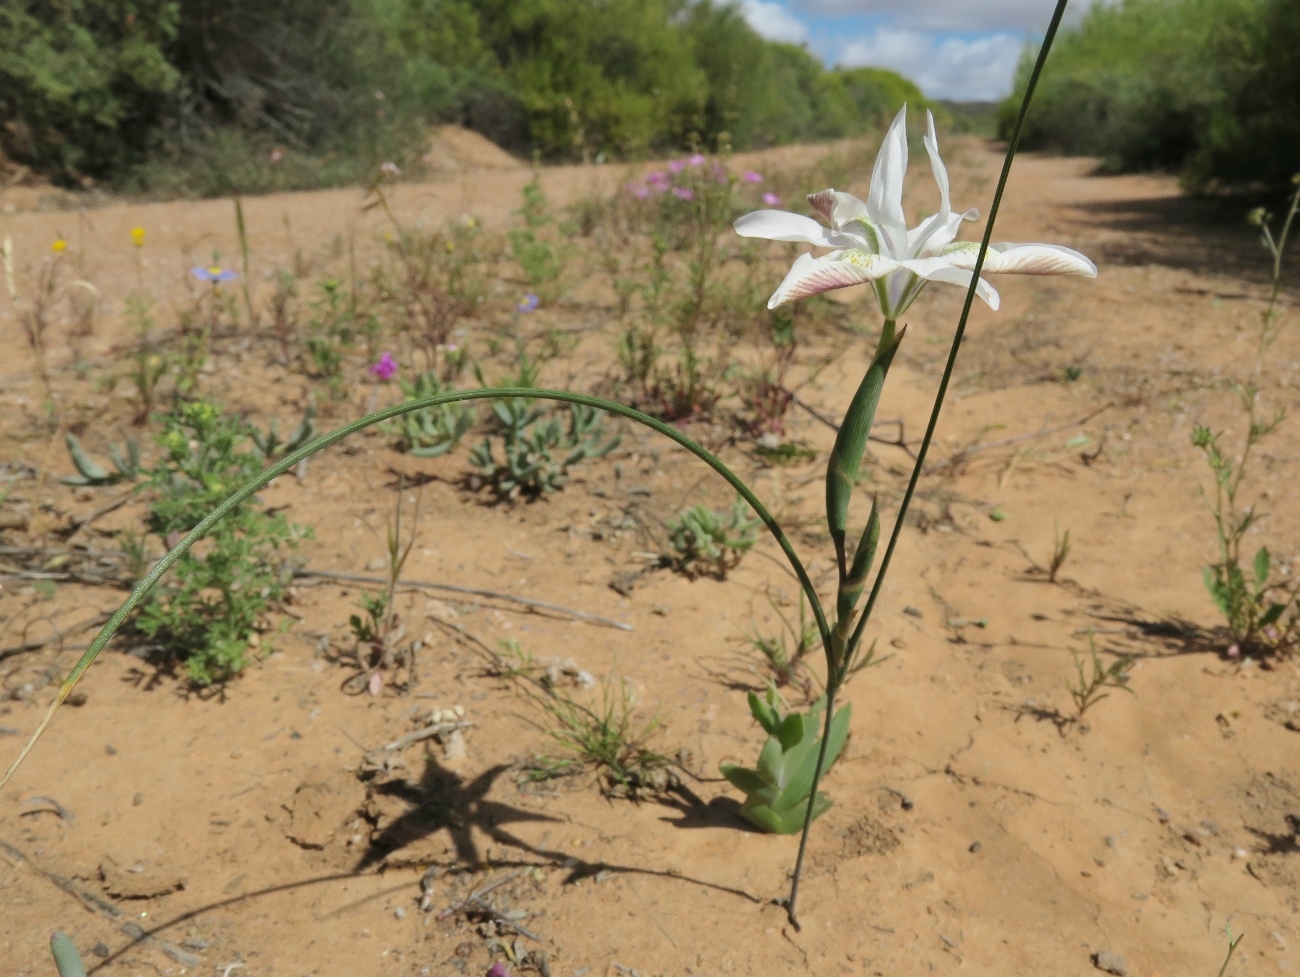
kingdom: Plantae
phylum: Tracheophyta
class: Liliopsida
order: Asparagales
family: Iridaceae
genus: Moraea
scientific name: Moraea filicaulis
